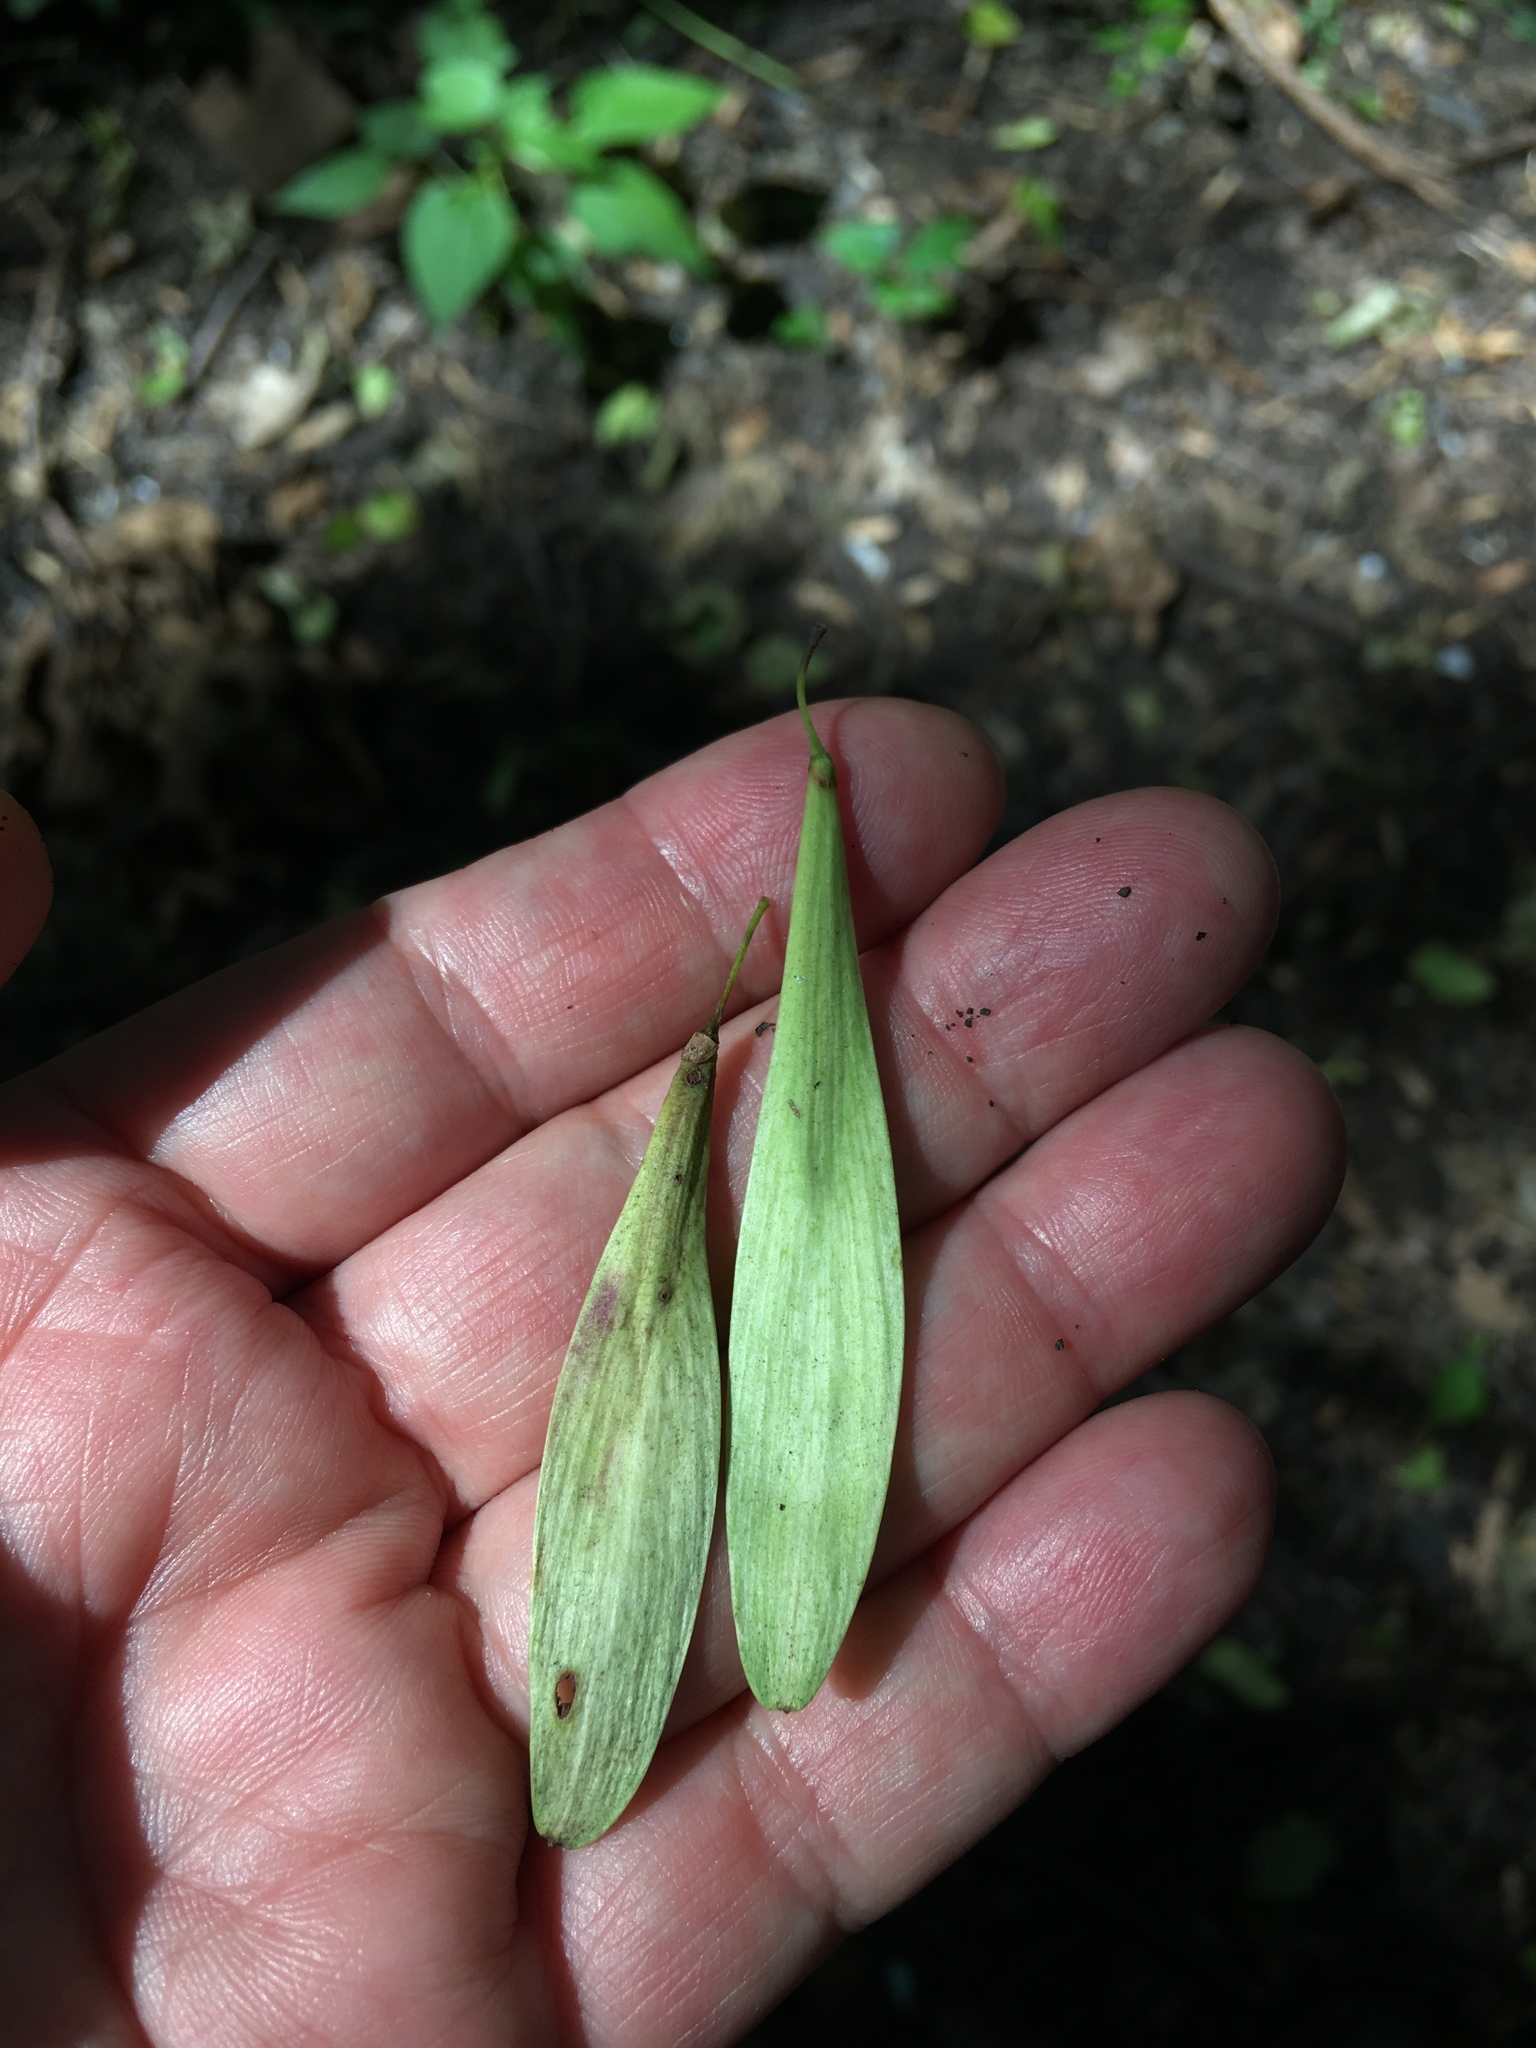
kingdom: Plantae
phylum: Tracheophyta
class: Magnoliopsida
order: Lamiales
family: Oleaceae
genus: Fraxinus
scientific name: Fraxinus profunda
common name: Pumpkin ash
